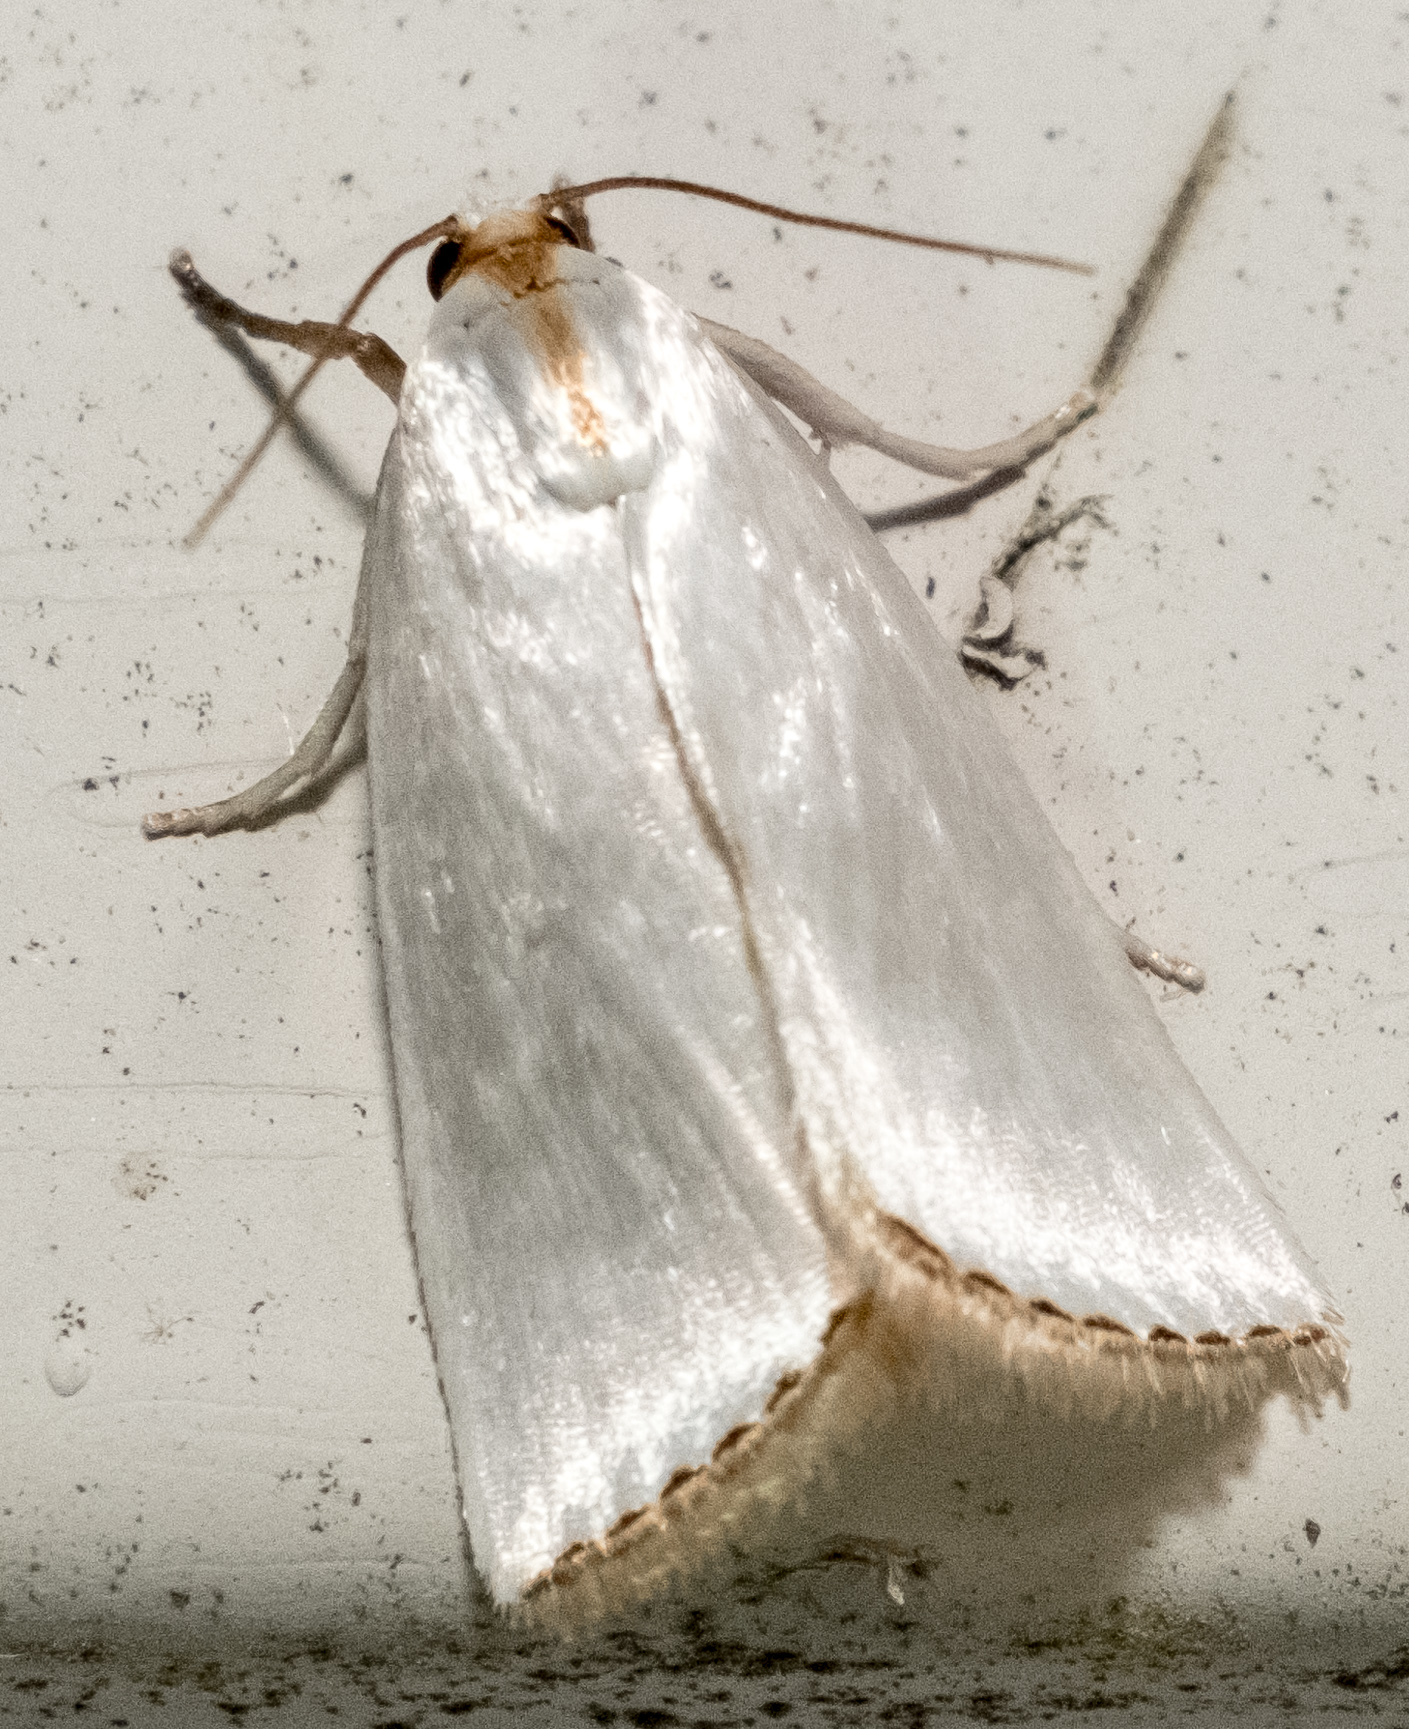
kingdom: Animalia
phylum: Arthropoda
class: Insecta
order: Lepidoptera
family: Crambidae
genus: Argyria
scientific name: Argyria nivalis
